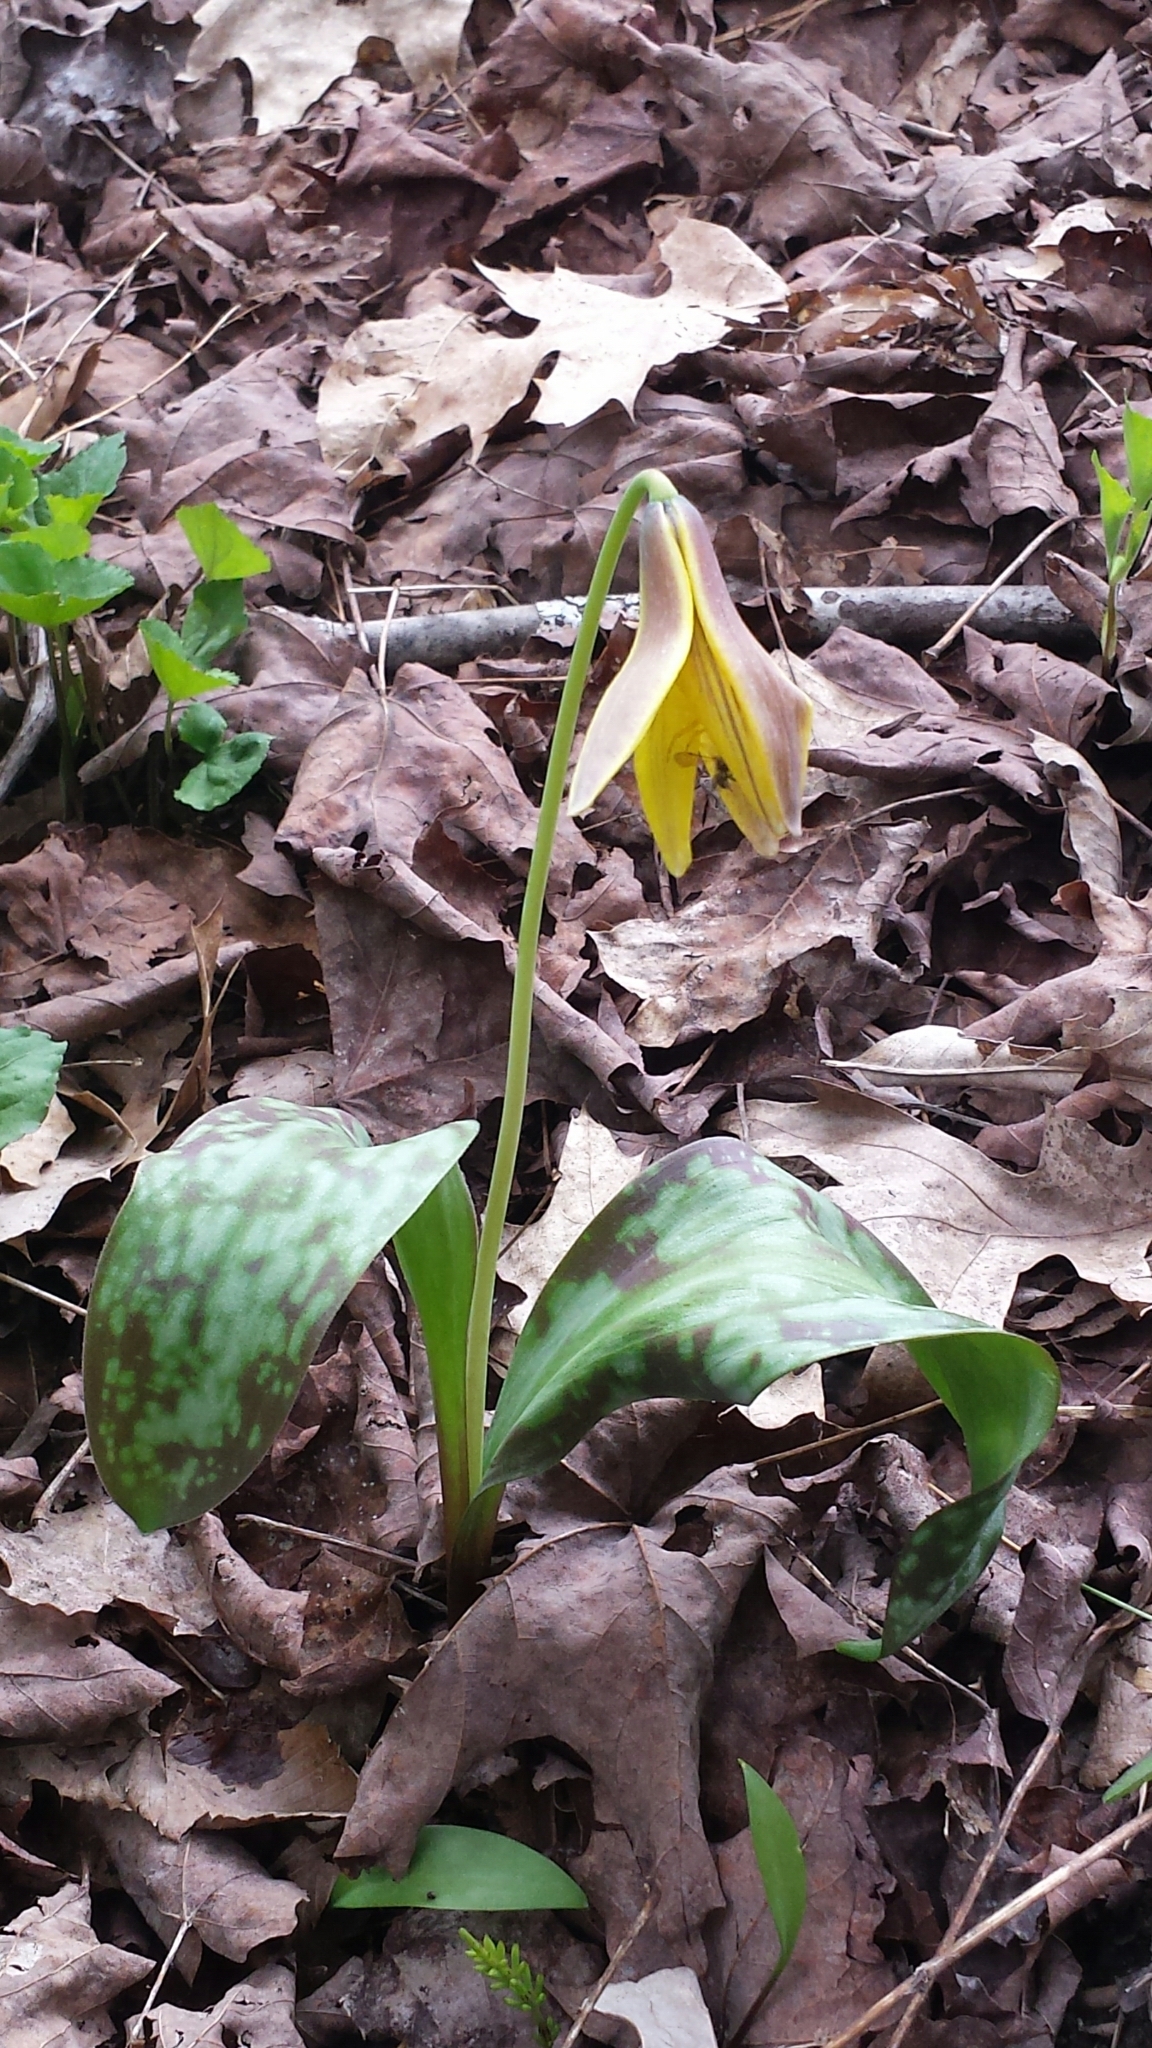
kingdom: Plantae
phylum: Tracheophyta
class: Liliopsida
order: Liliales
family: Liliaceae
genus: Erythronium
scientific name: Erythronium americanum
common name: Yellow adder's-tongue
